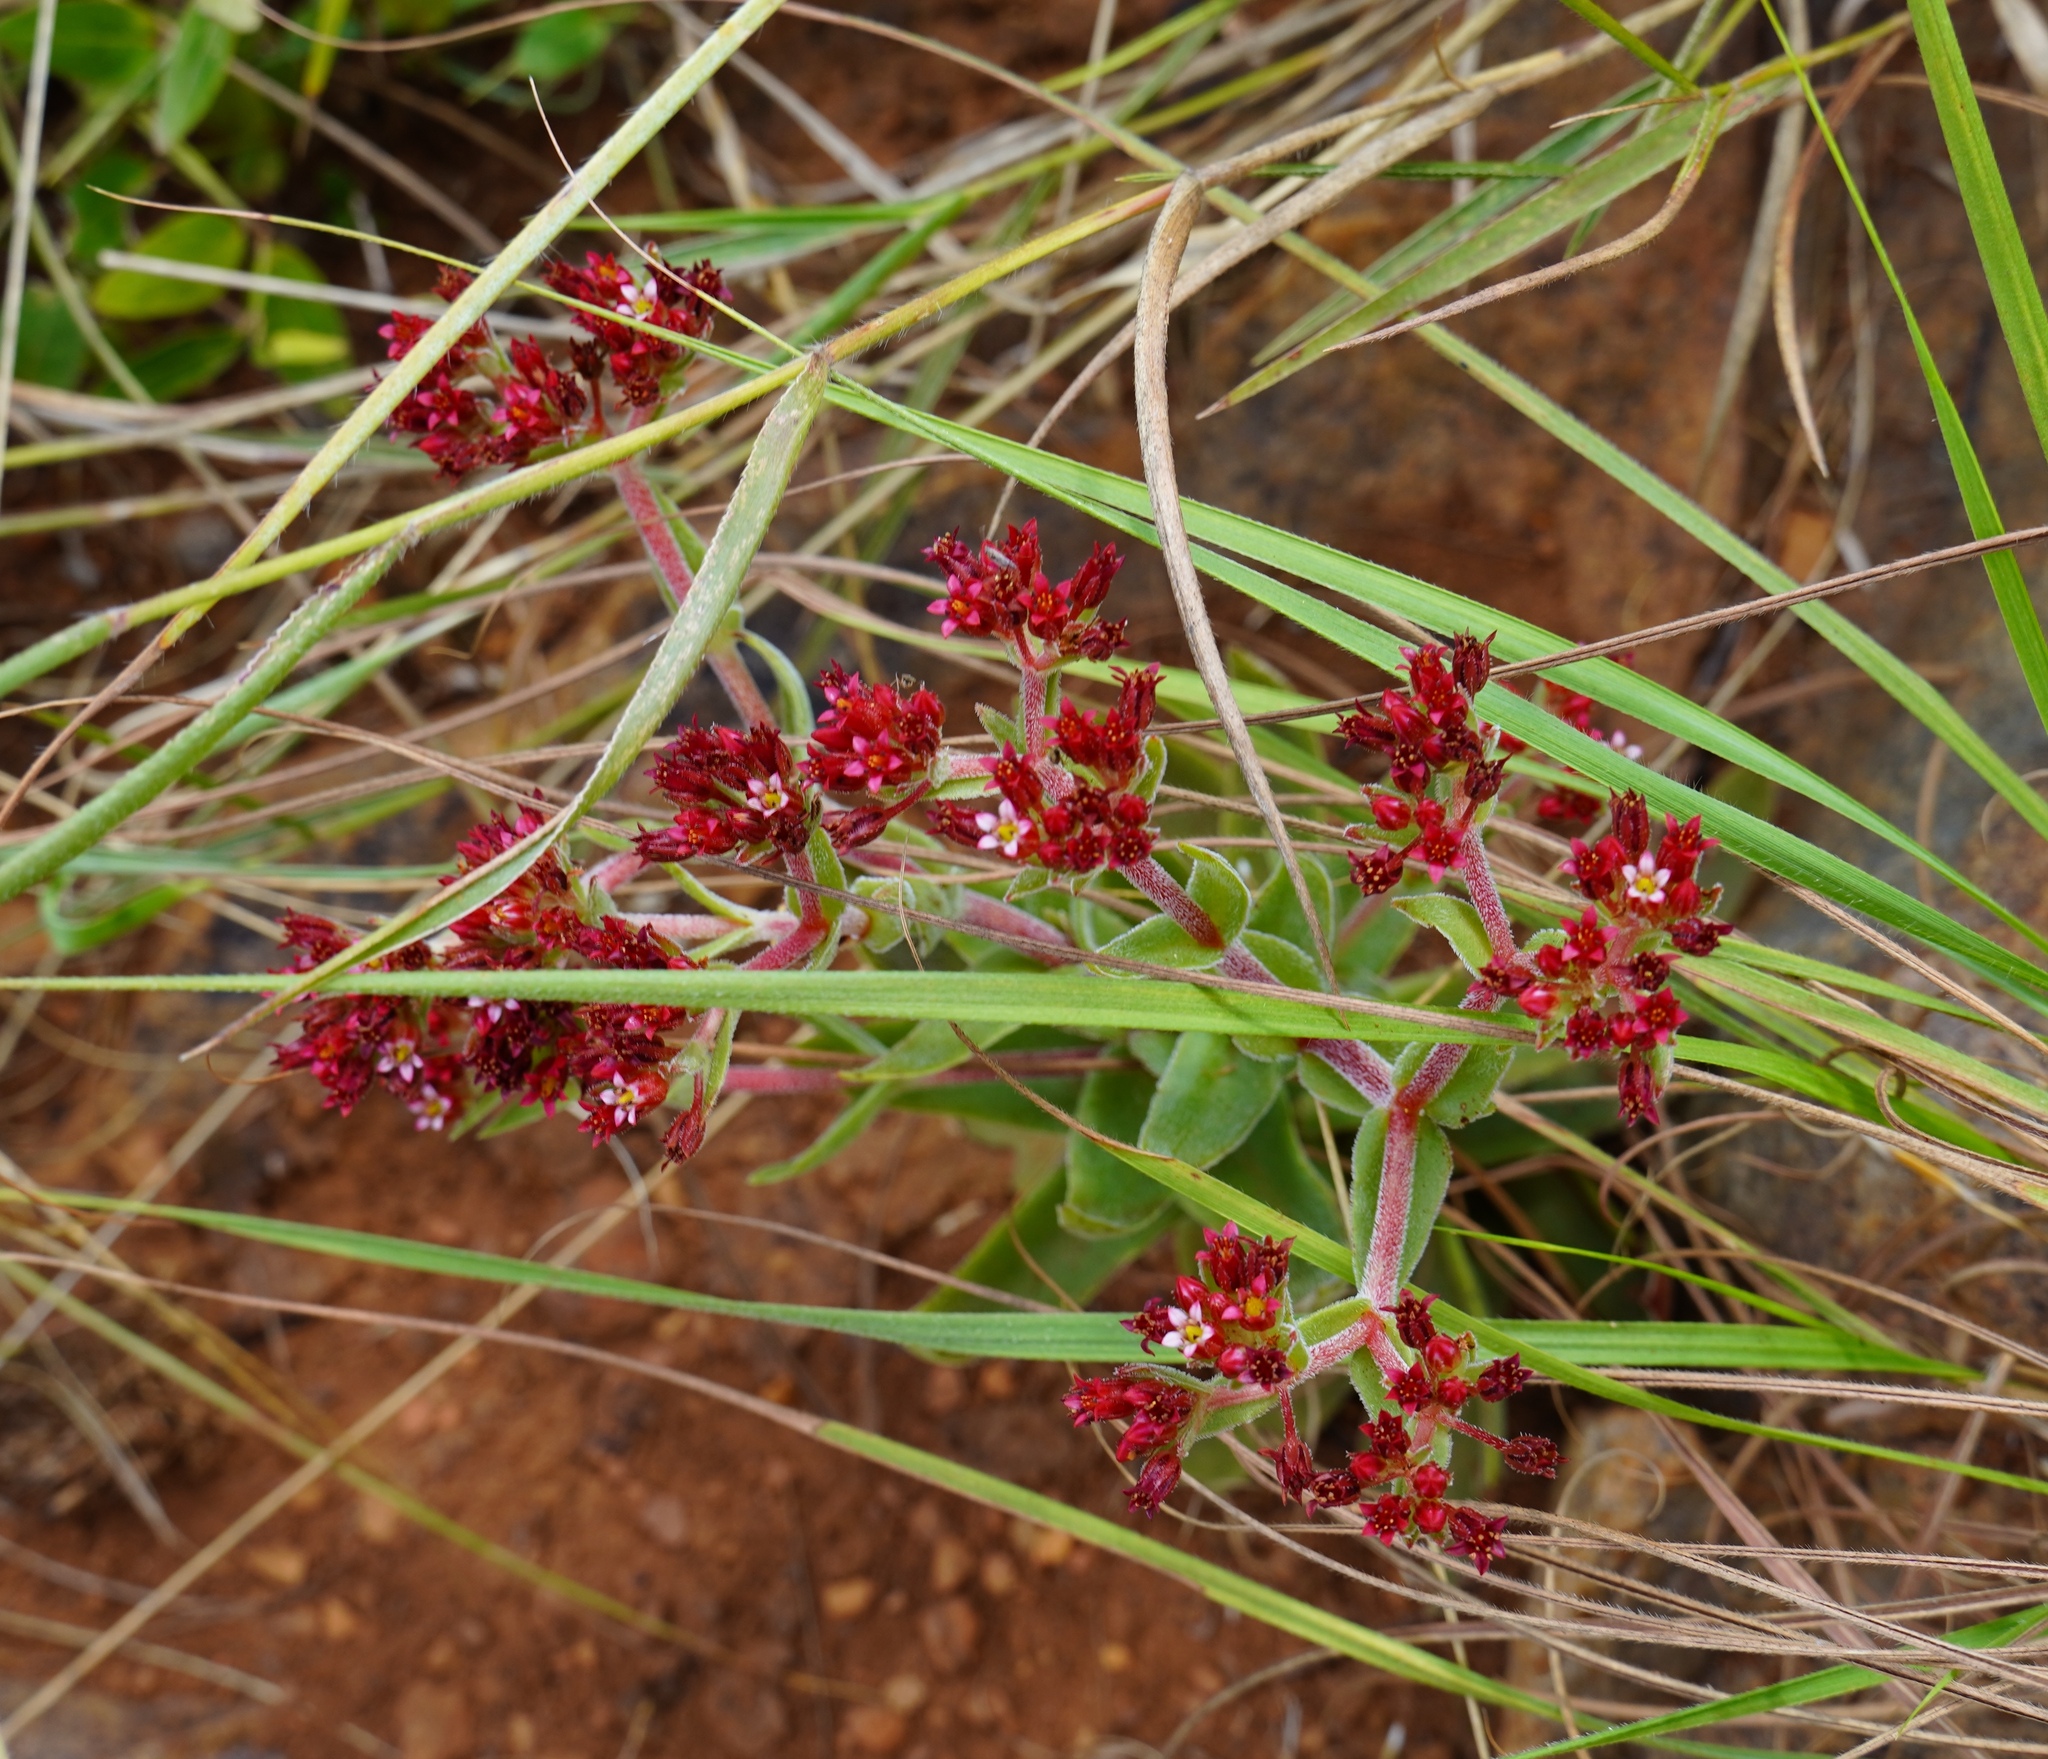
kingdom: Plantae
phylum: Tracheophyta
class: Magnoliopsida
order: Saxifragales
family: Crassulaceae
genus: Crassula
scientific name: Crassula alba
